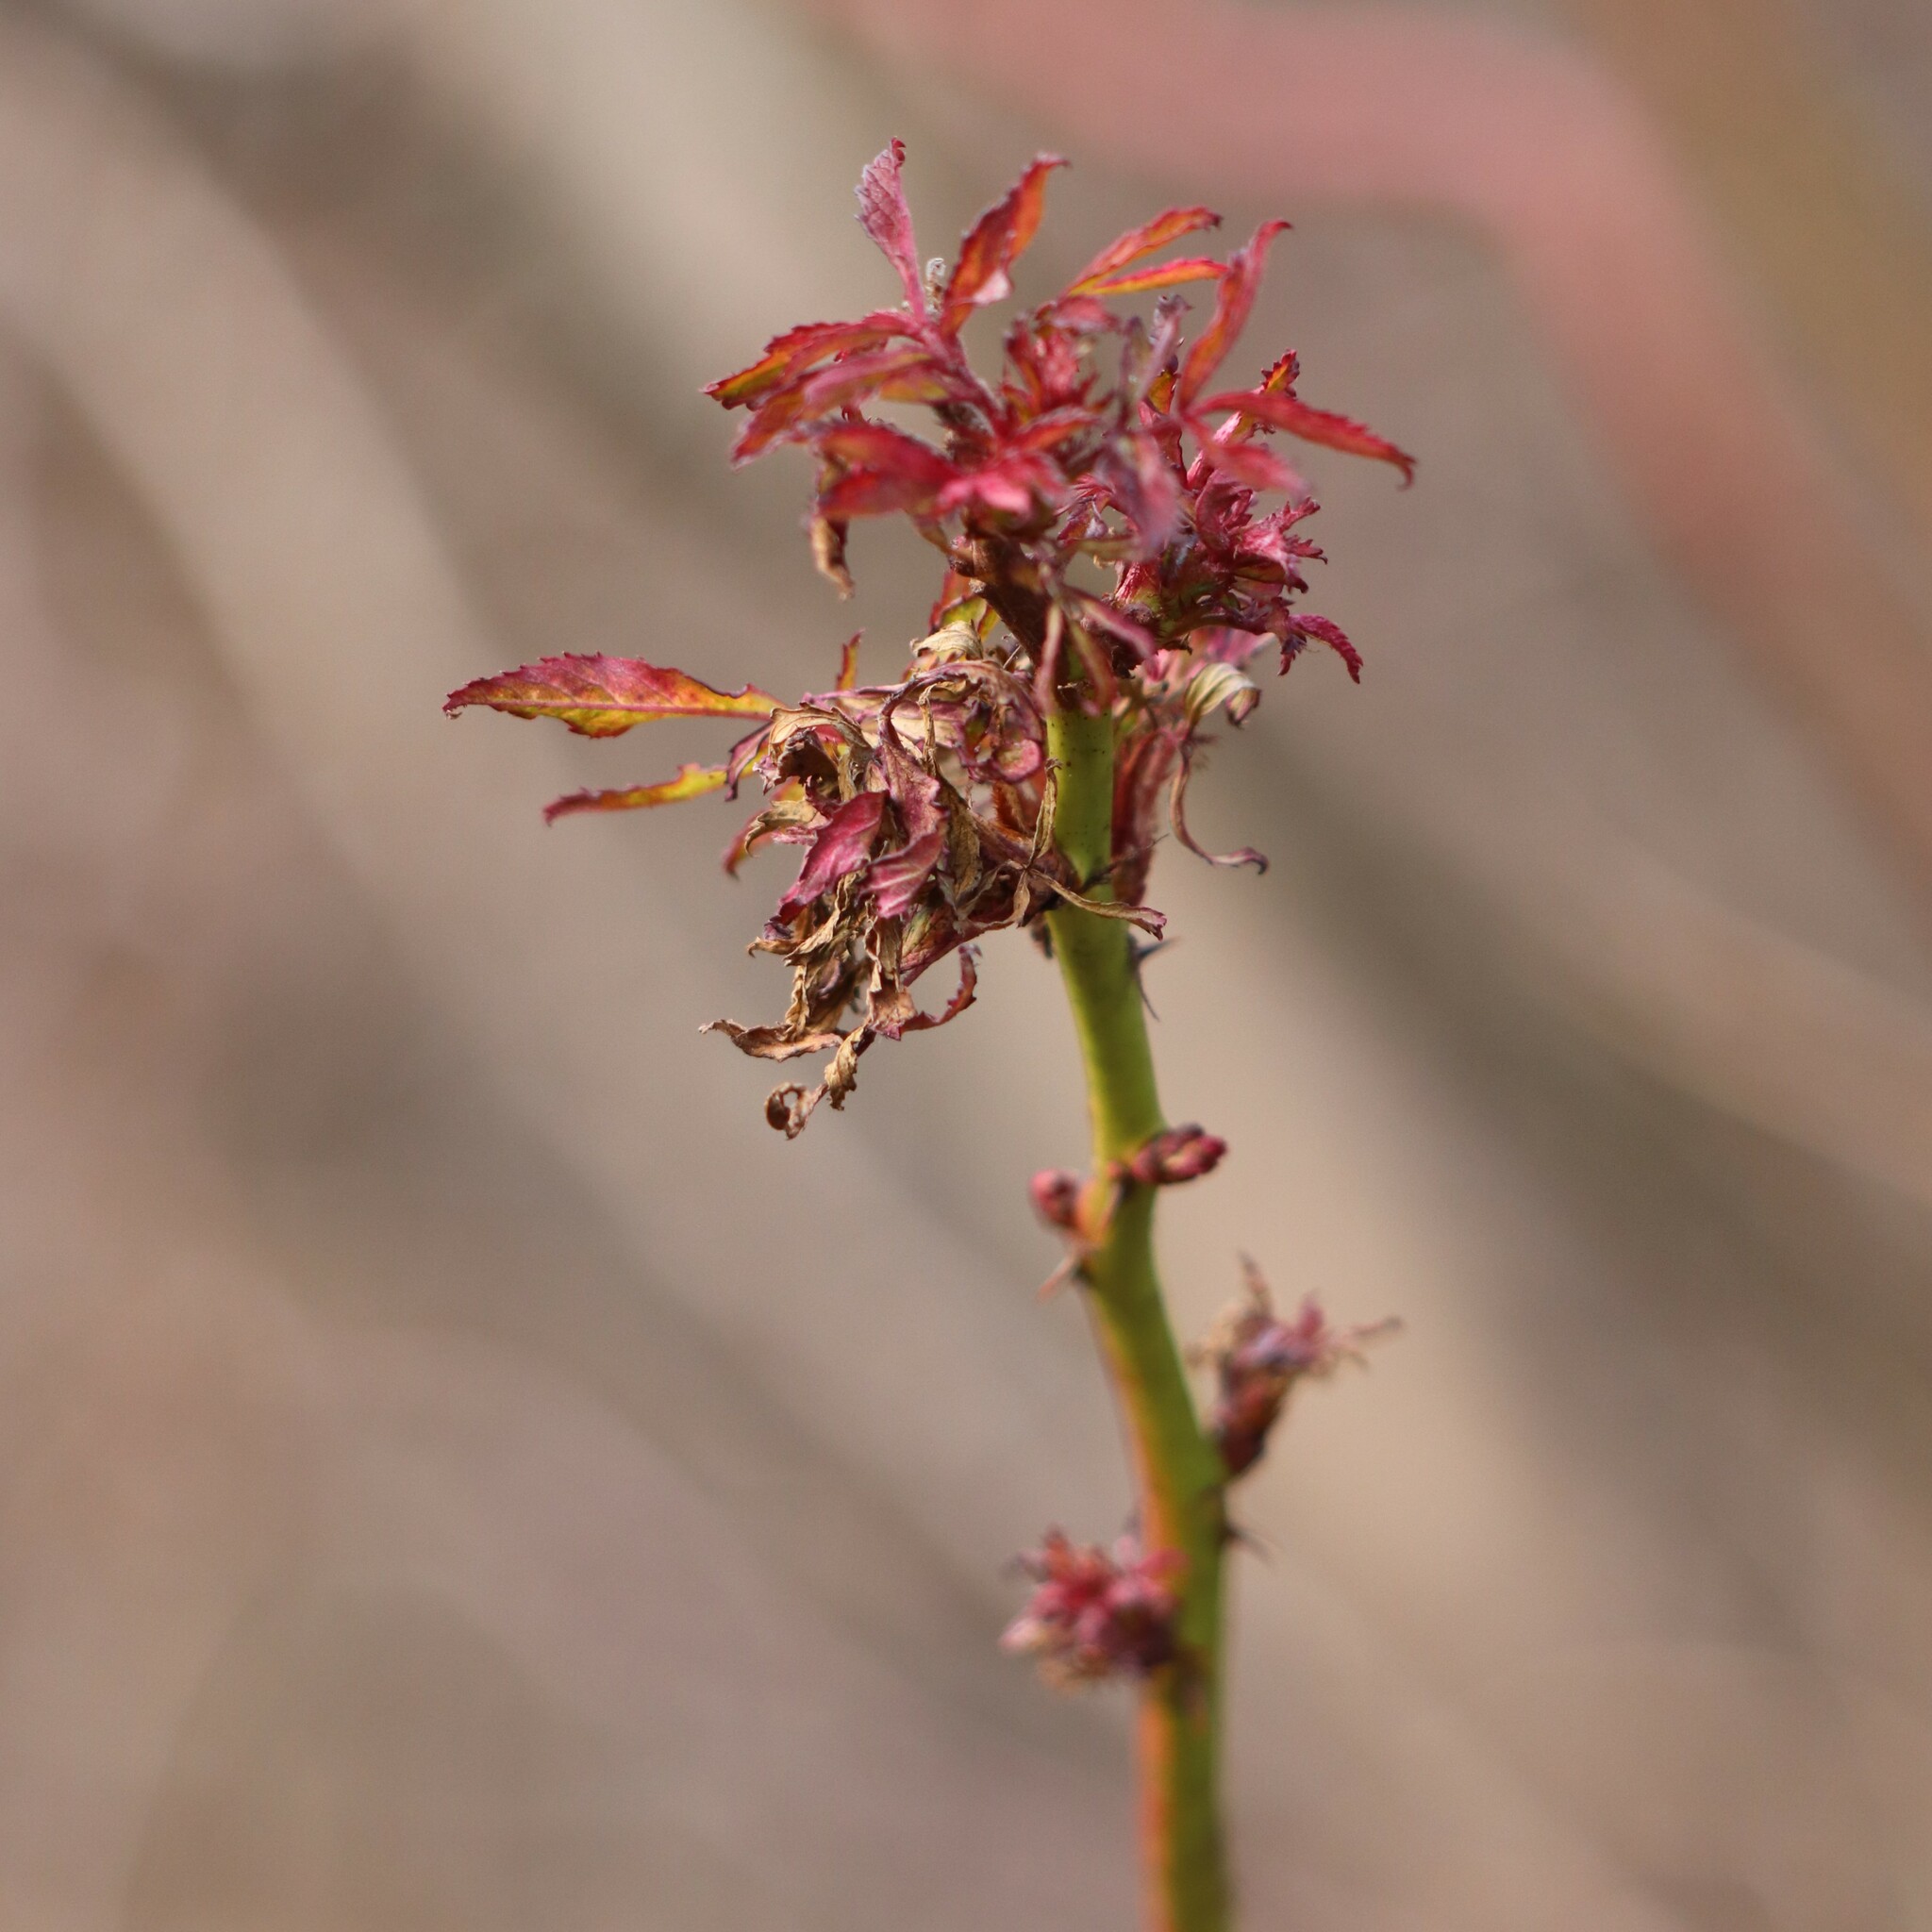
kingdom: Viruses
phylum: Negarnaviricota
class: Ellioviricetes
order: Bunyavirales
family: Fimoviridae
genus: Emaravirus
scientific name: Emaravirus rosae
